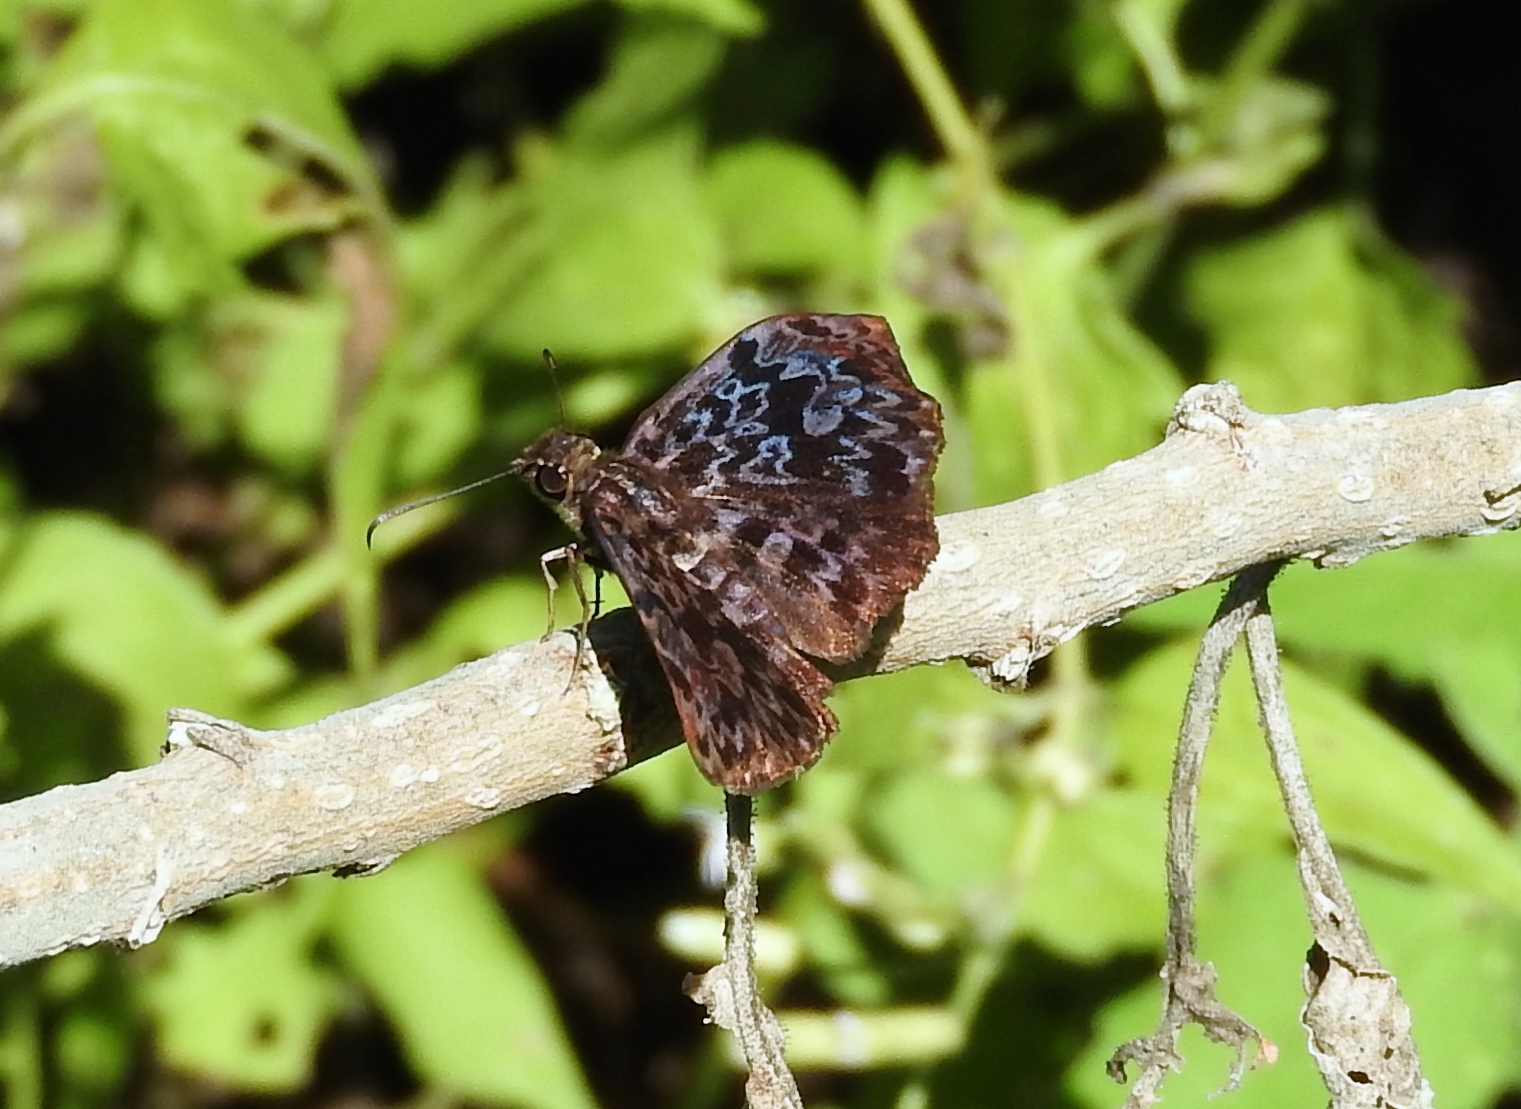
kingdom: Animalia
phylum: Arthropoda
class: Insecta
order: Lepidoptera
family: Hesperiidae
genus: Cycloglypha
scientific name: Cycloglypha thrasibulus
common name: Widespread bent-skipper
